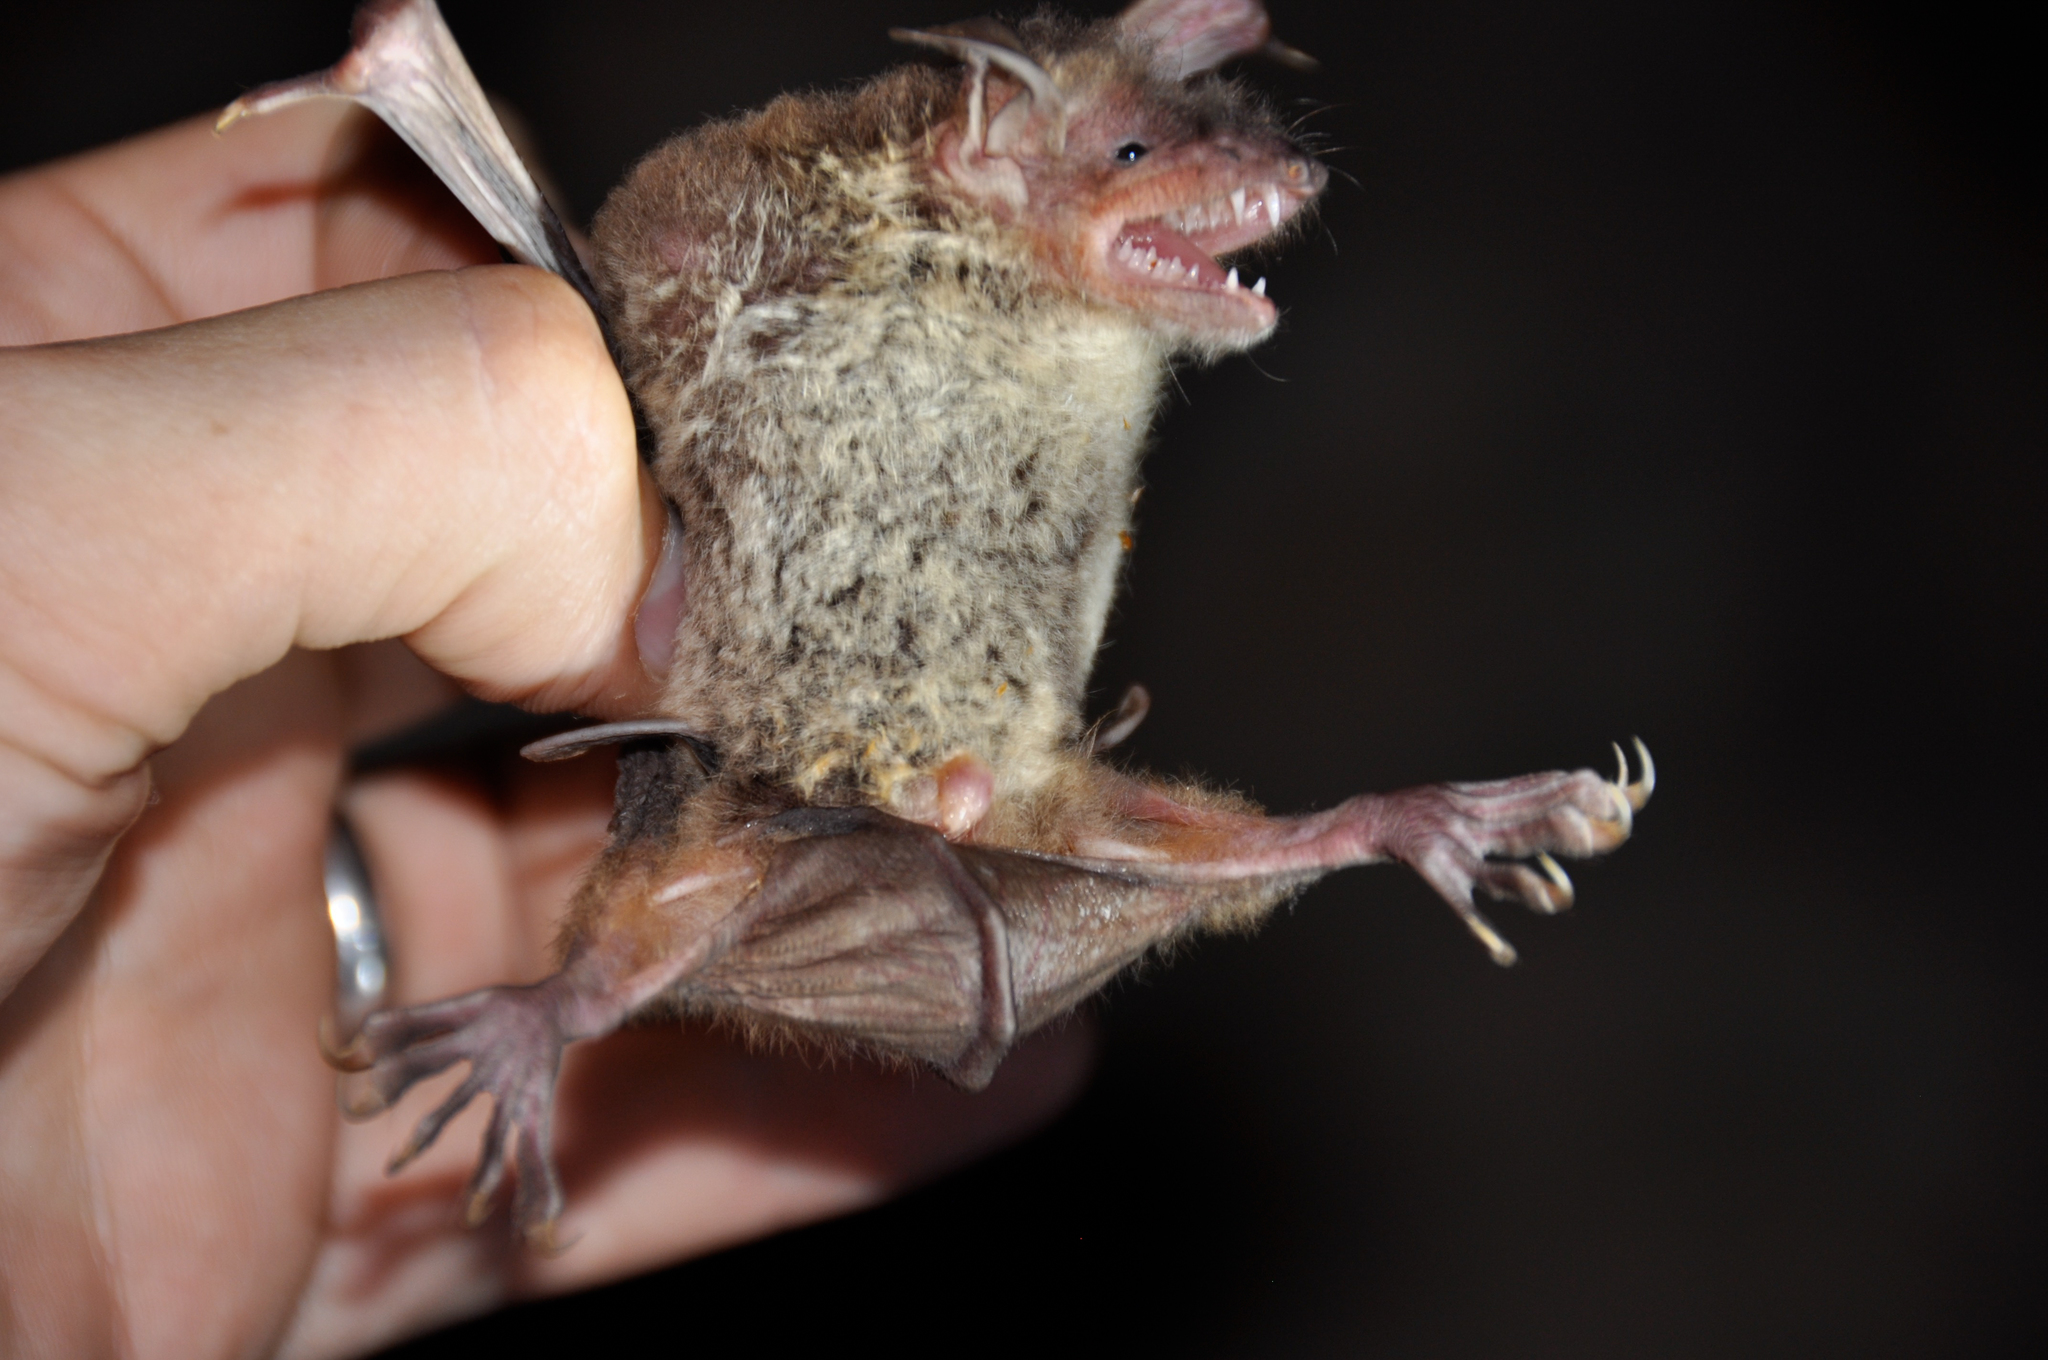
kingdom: Animalia
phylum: Chordata
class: Mammalia
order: Chiroptera
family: Vespertilionidae
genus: Myotis
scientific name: Myotis pilosus
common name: Rickett's big-footed myotis
